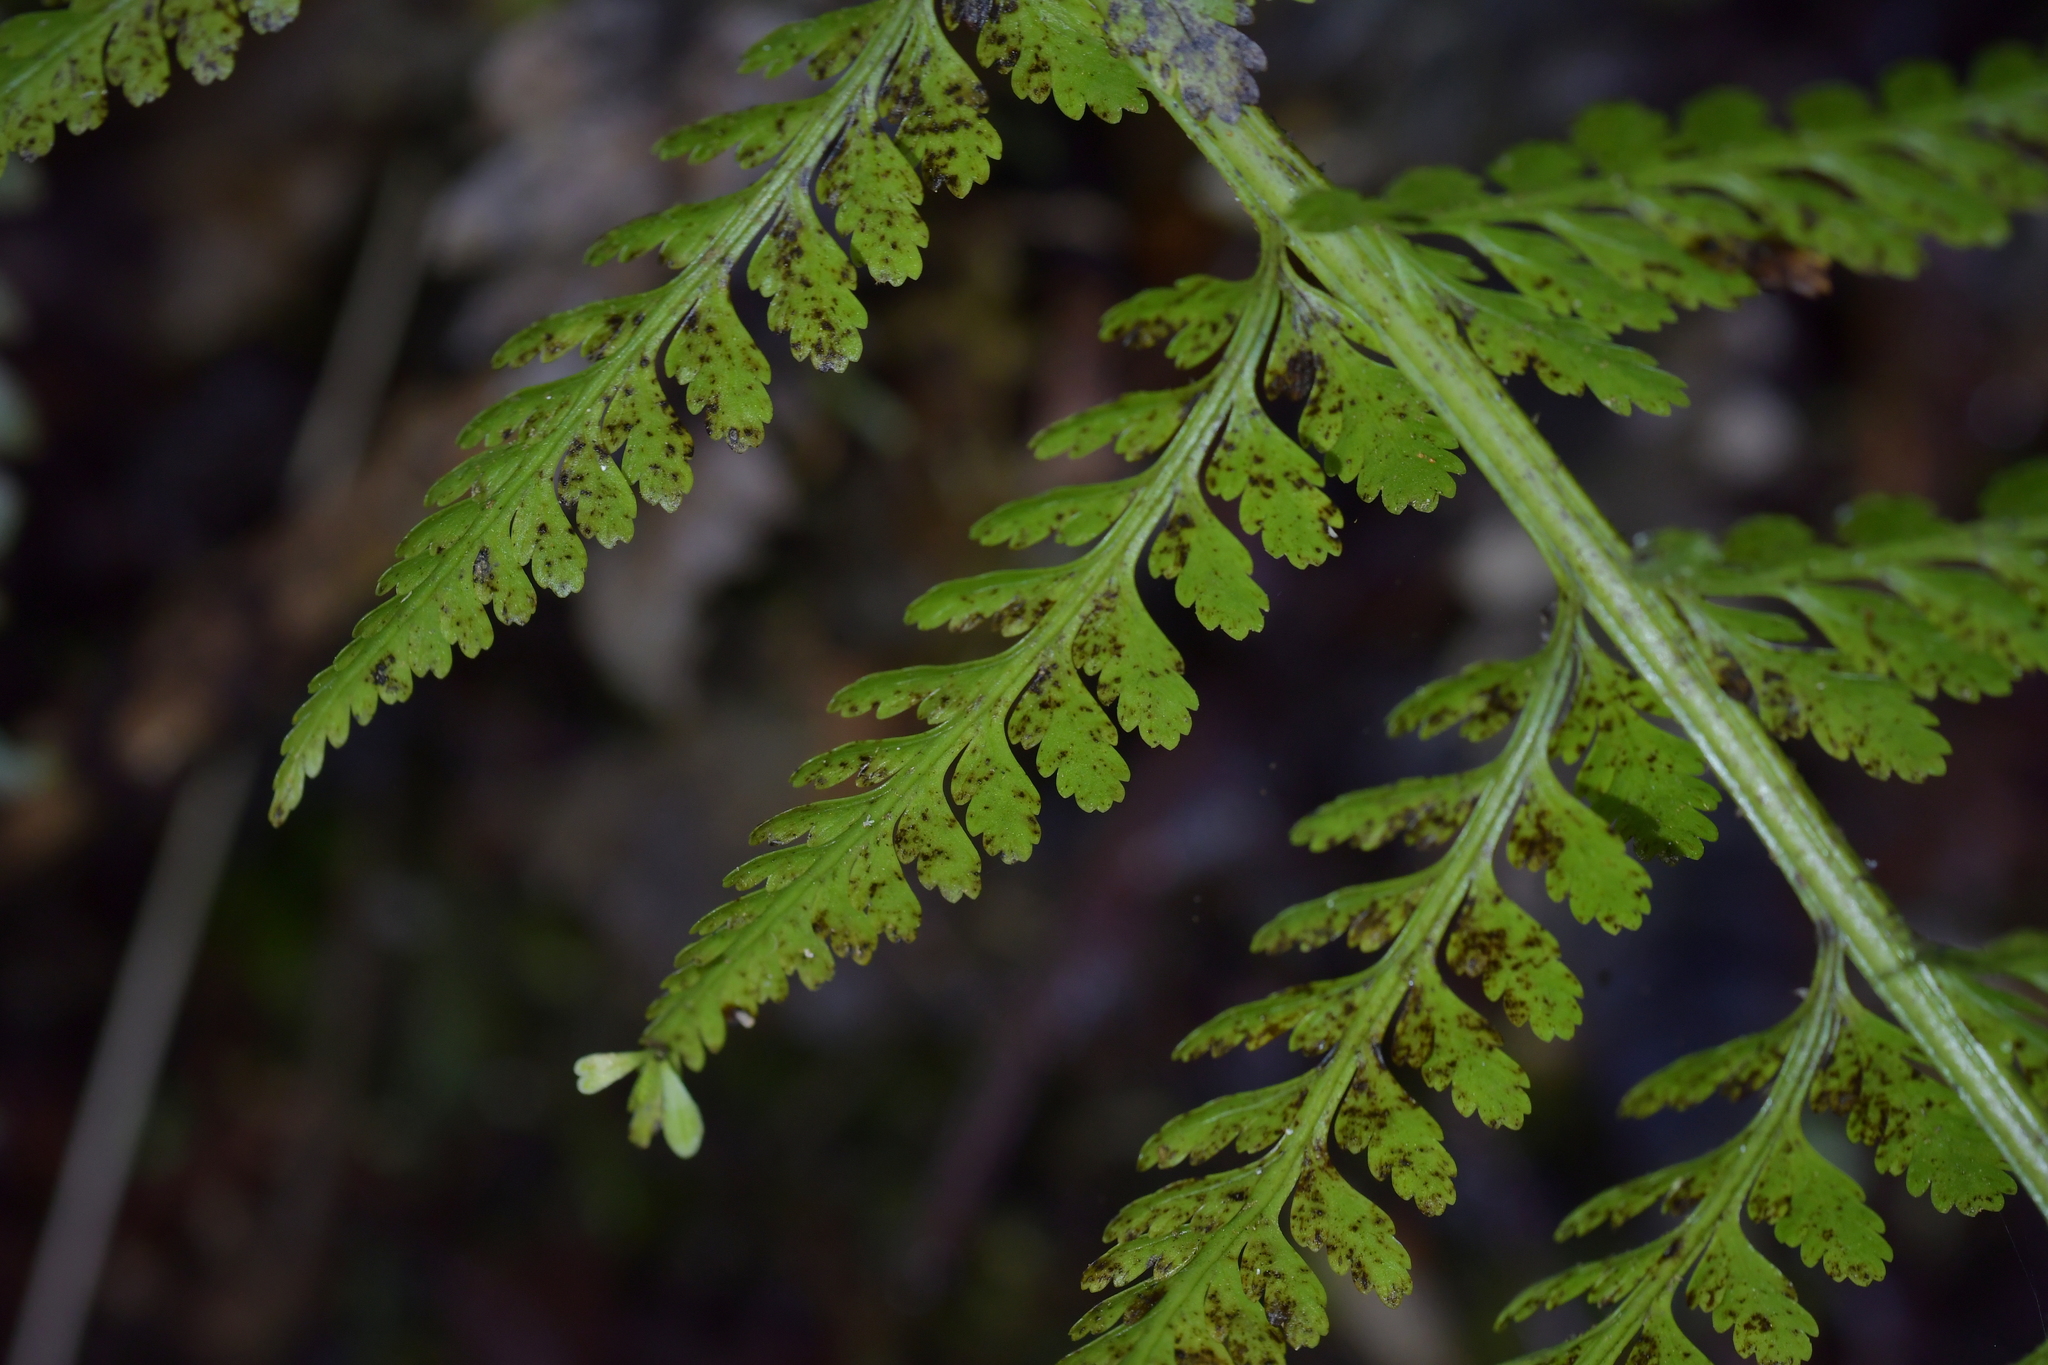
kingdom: Plantae
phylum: Tracheophyta
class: Polypodiopsida
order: Polypodiales
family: Aspleniaceae
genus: Asplenium
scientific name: Asplenium bulbiferum
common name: Mother fern
